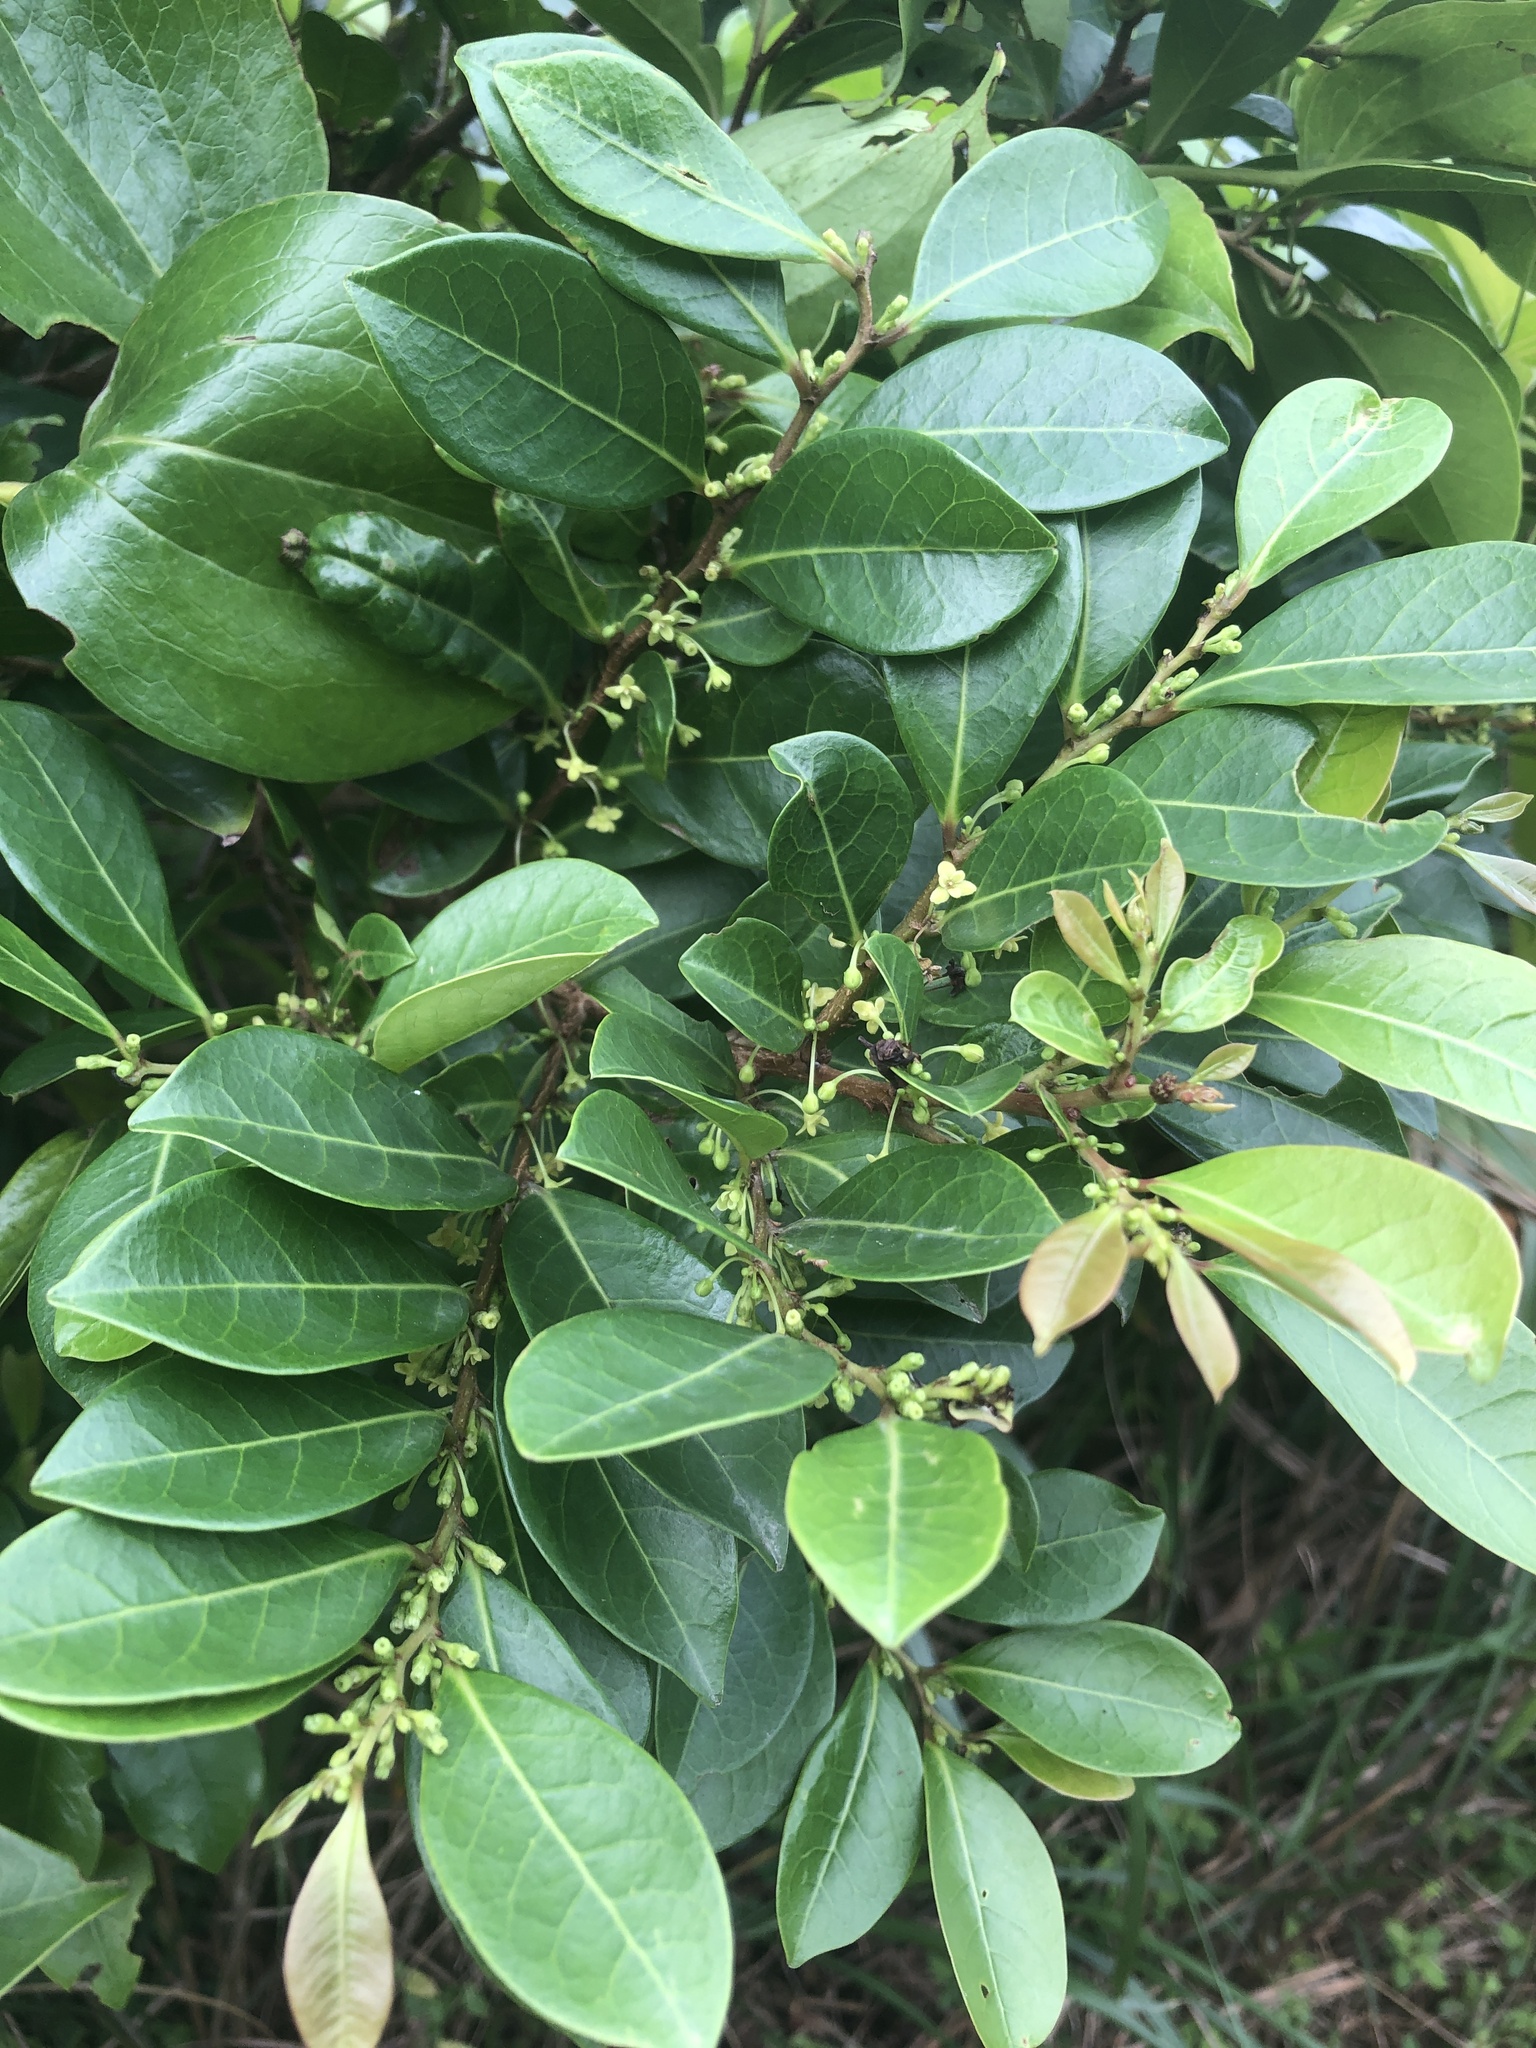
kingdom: Plantae
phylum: Tracheophyta
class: Magnoliopsida
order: Malpighiales
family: Phyllanthaceae
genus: Glochidion
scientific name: Glochidion rubrum
